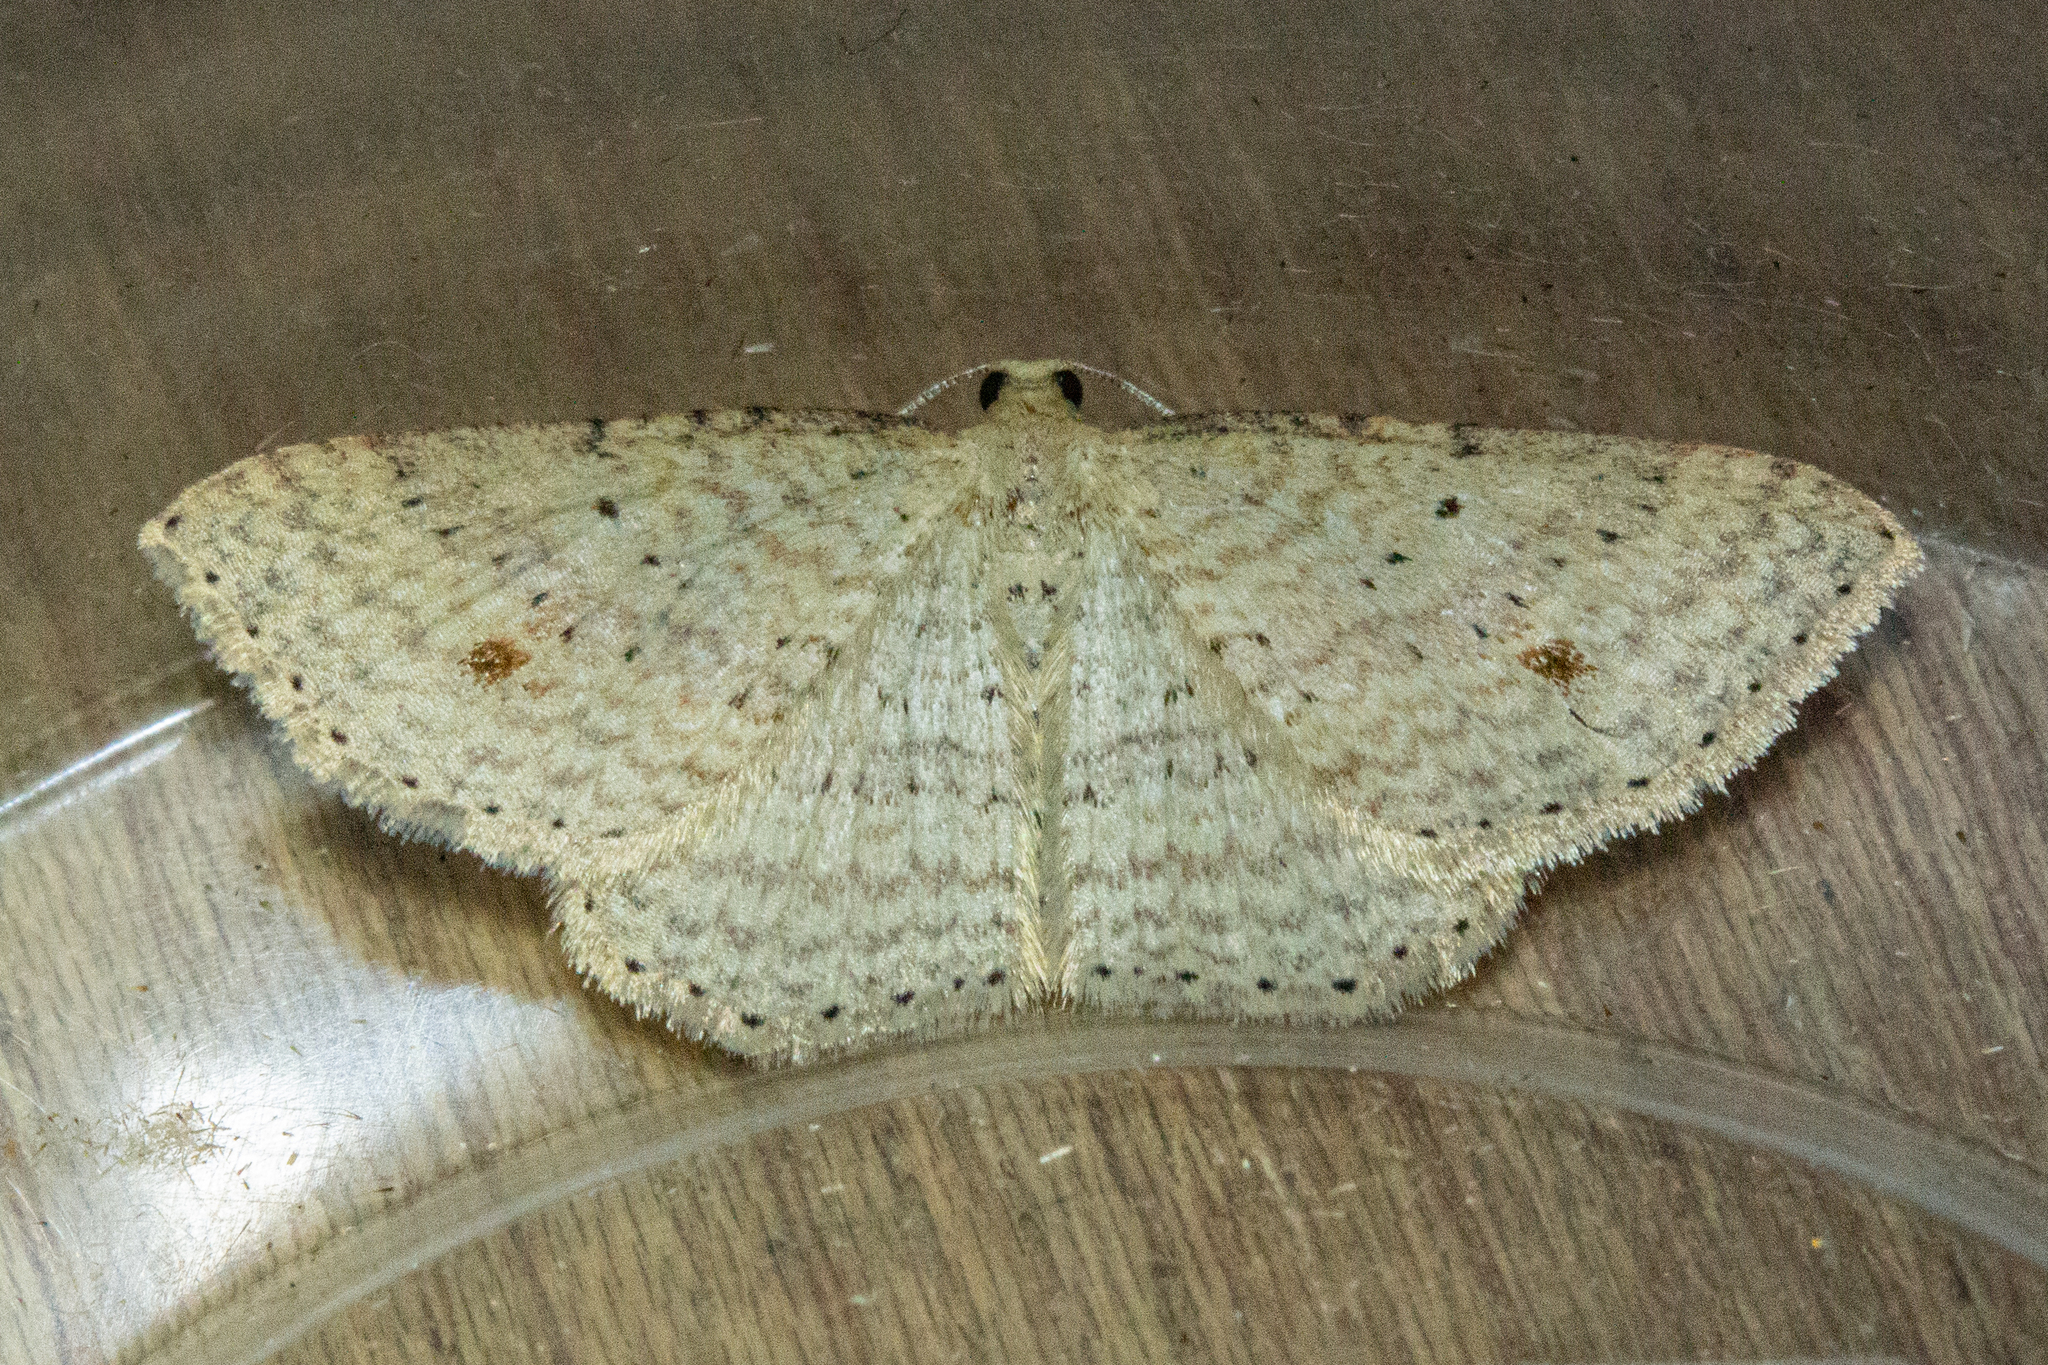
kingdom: Animalia
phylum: Arthropoda
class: Insecta
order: Lepidoptera
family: Geometridae
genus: Epicyme
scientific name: Epicyme rubropunctaria
